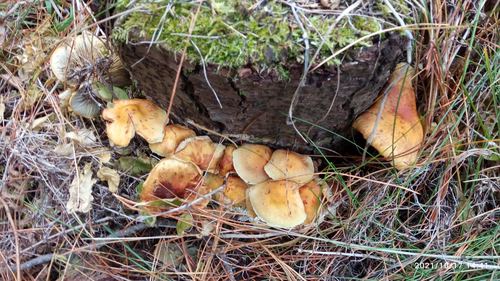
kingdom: Fungi
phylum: Basidiomycota
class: Agaricomycetes
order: Agaricales
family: Strophariaceae
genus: Hypholoma
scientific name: Hypholoma capnoides
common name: Conifer tuft
